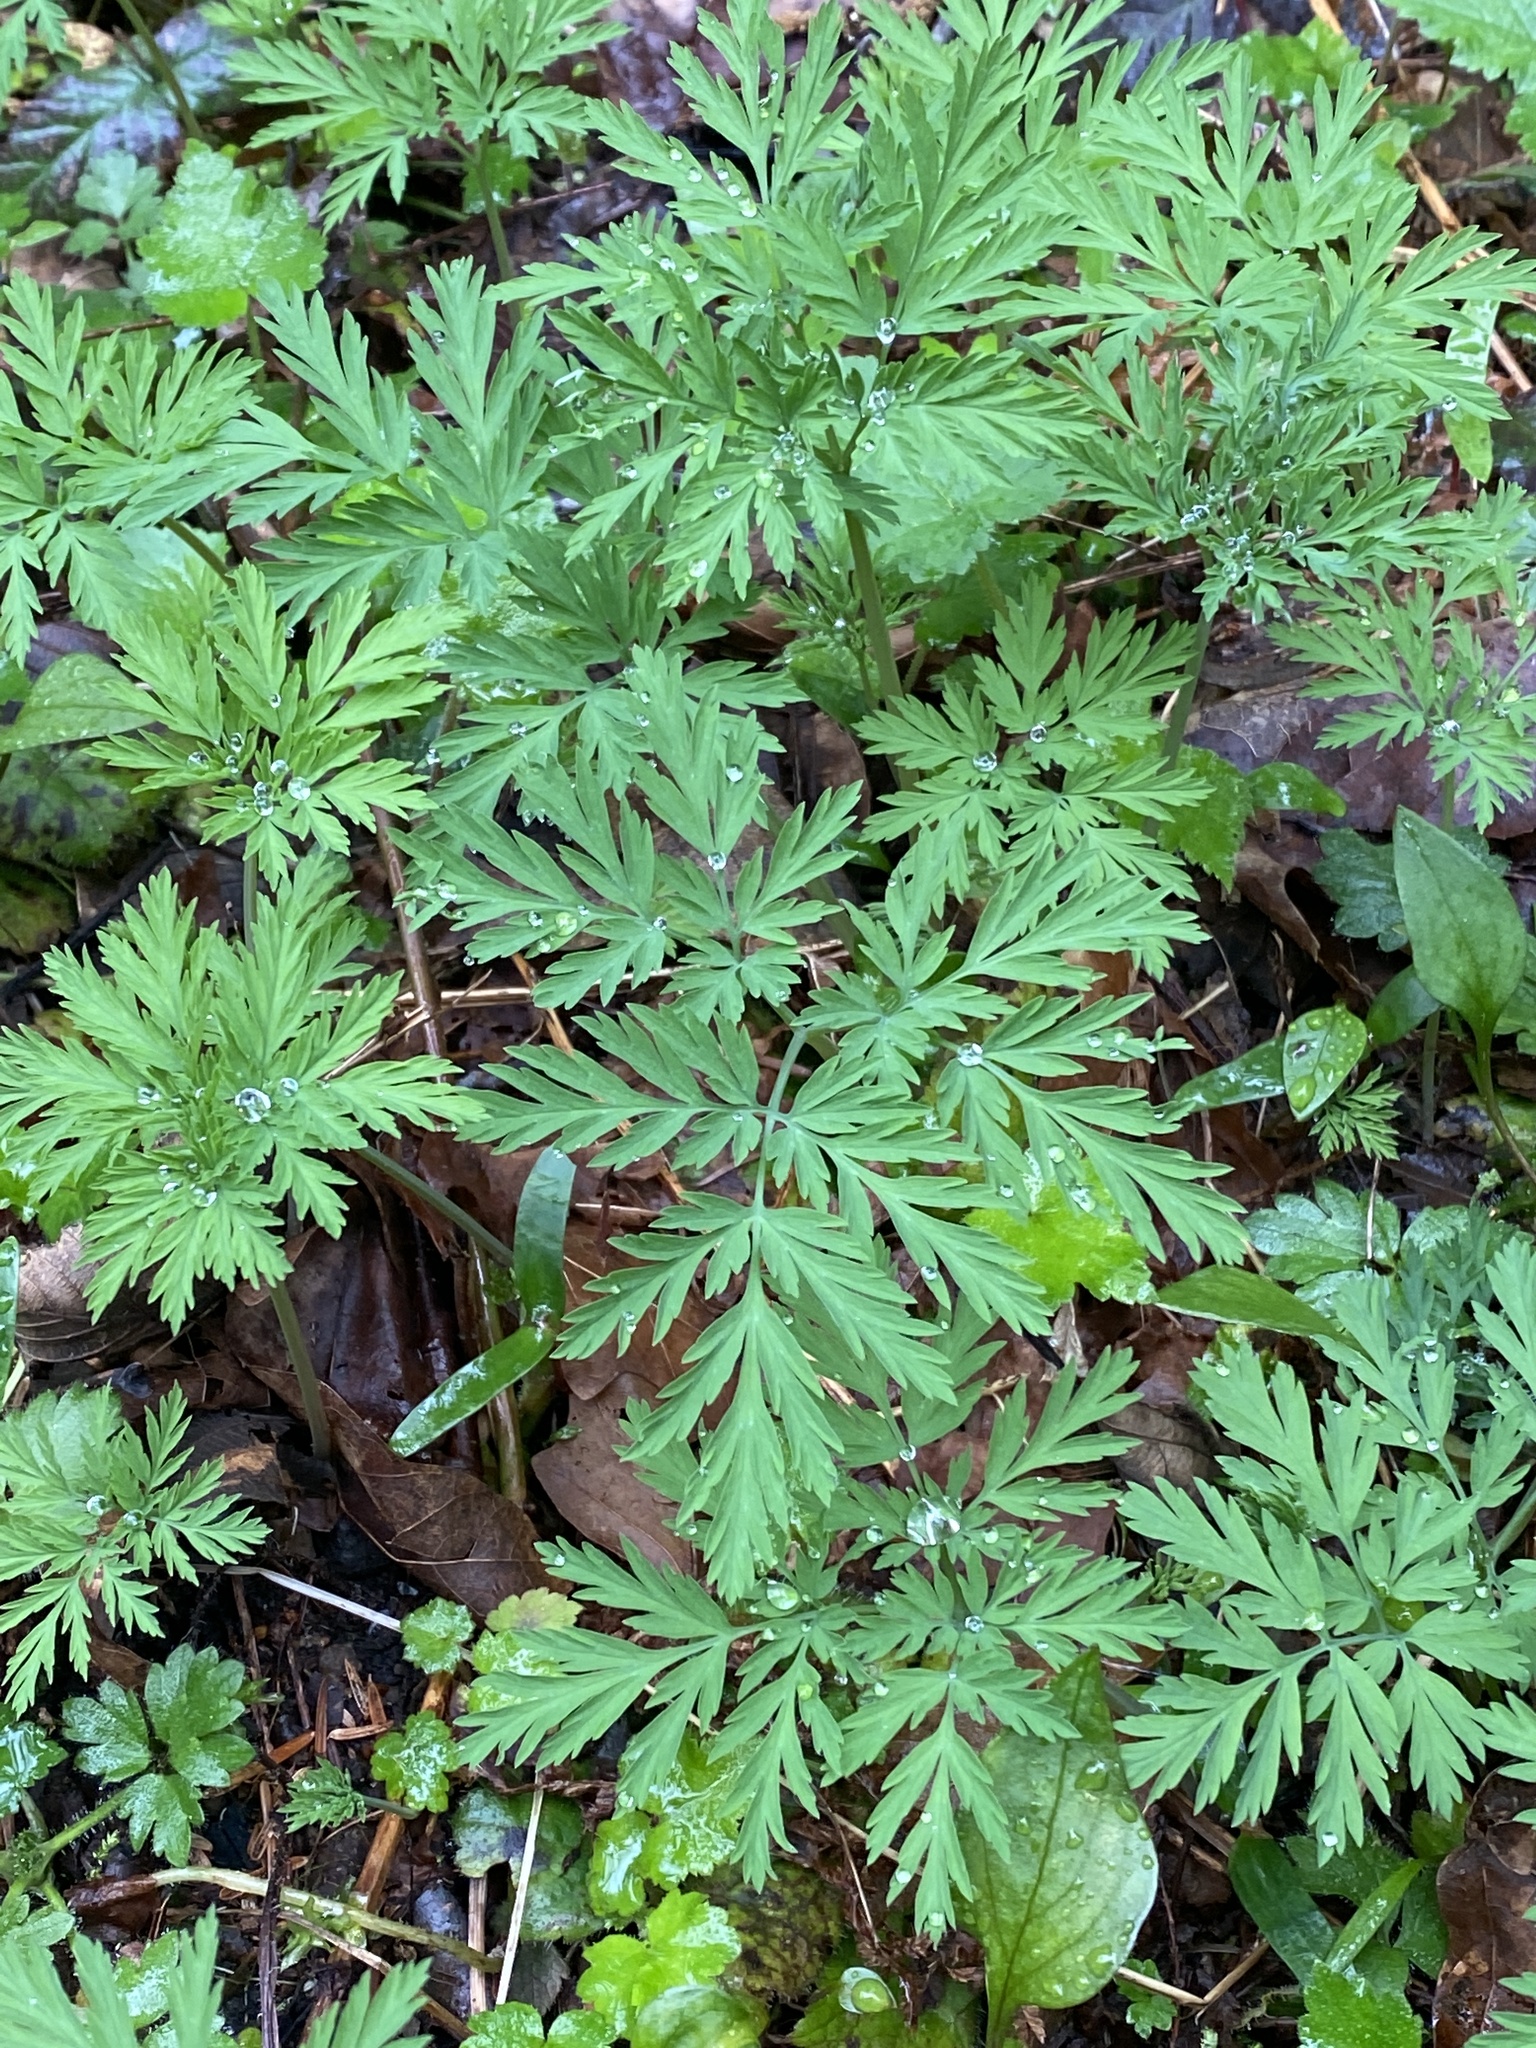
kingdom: Plantae
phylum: Tracheophyta
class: Magnoliopsida
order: Ranunculales
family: Papaveraceae
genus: Dicentra
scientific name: Dicentra formosa
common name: Bleeding-heart
